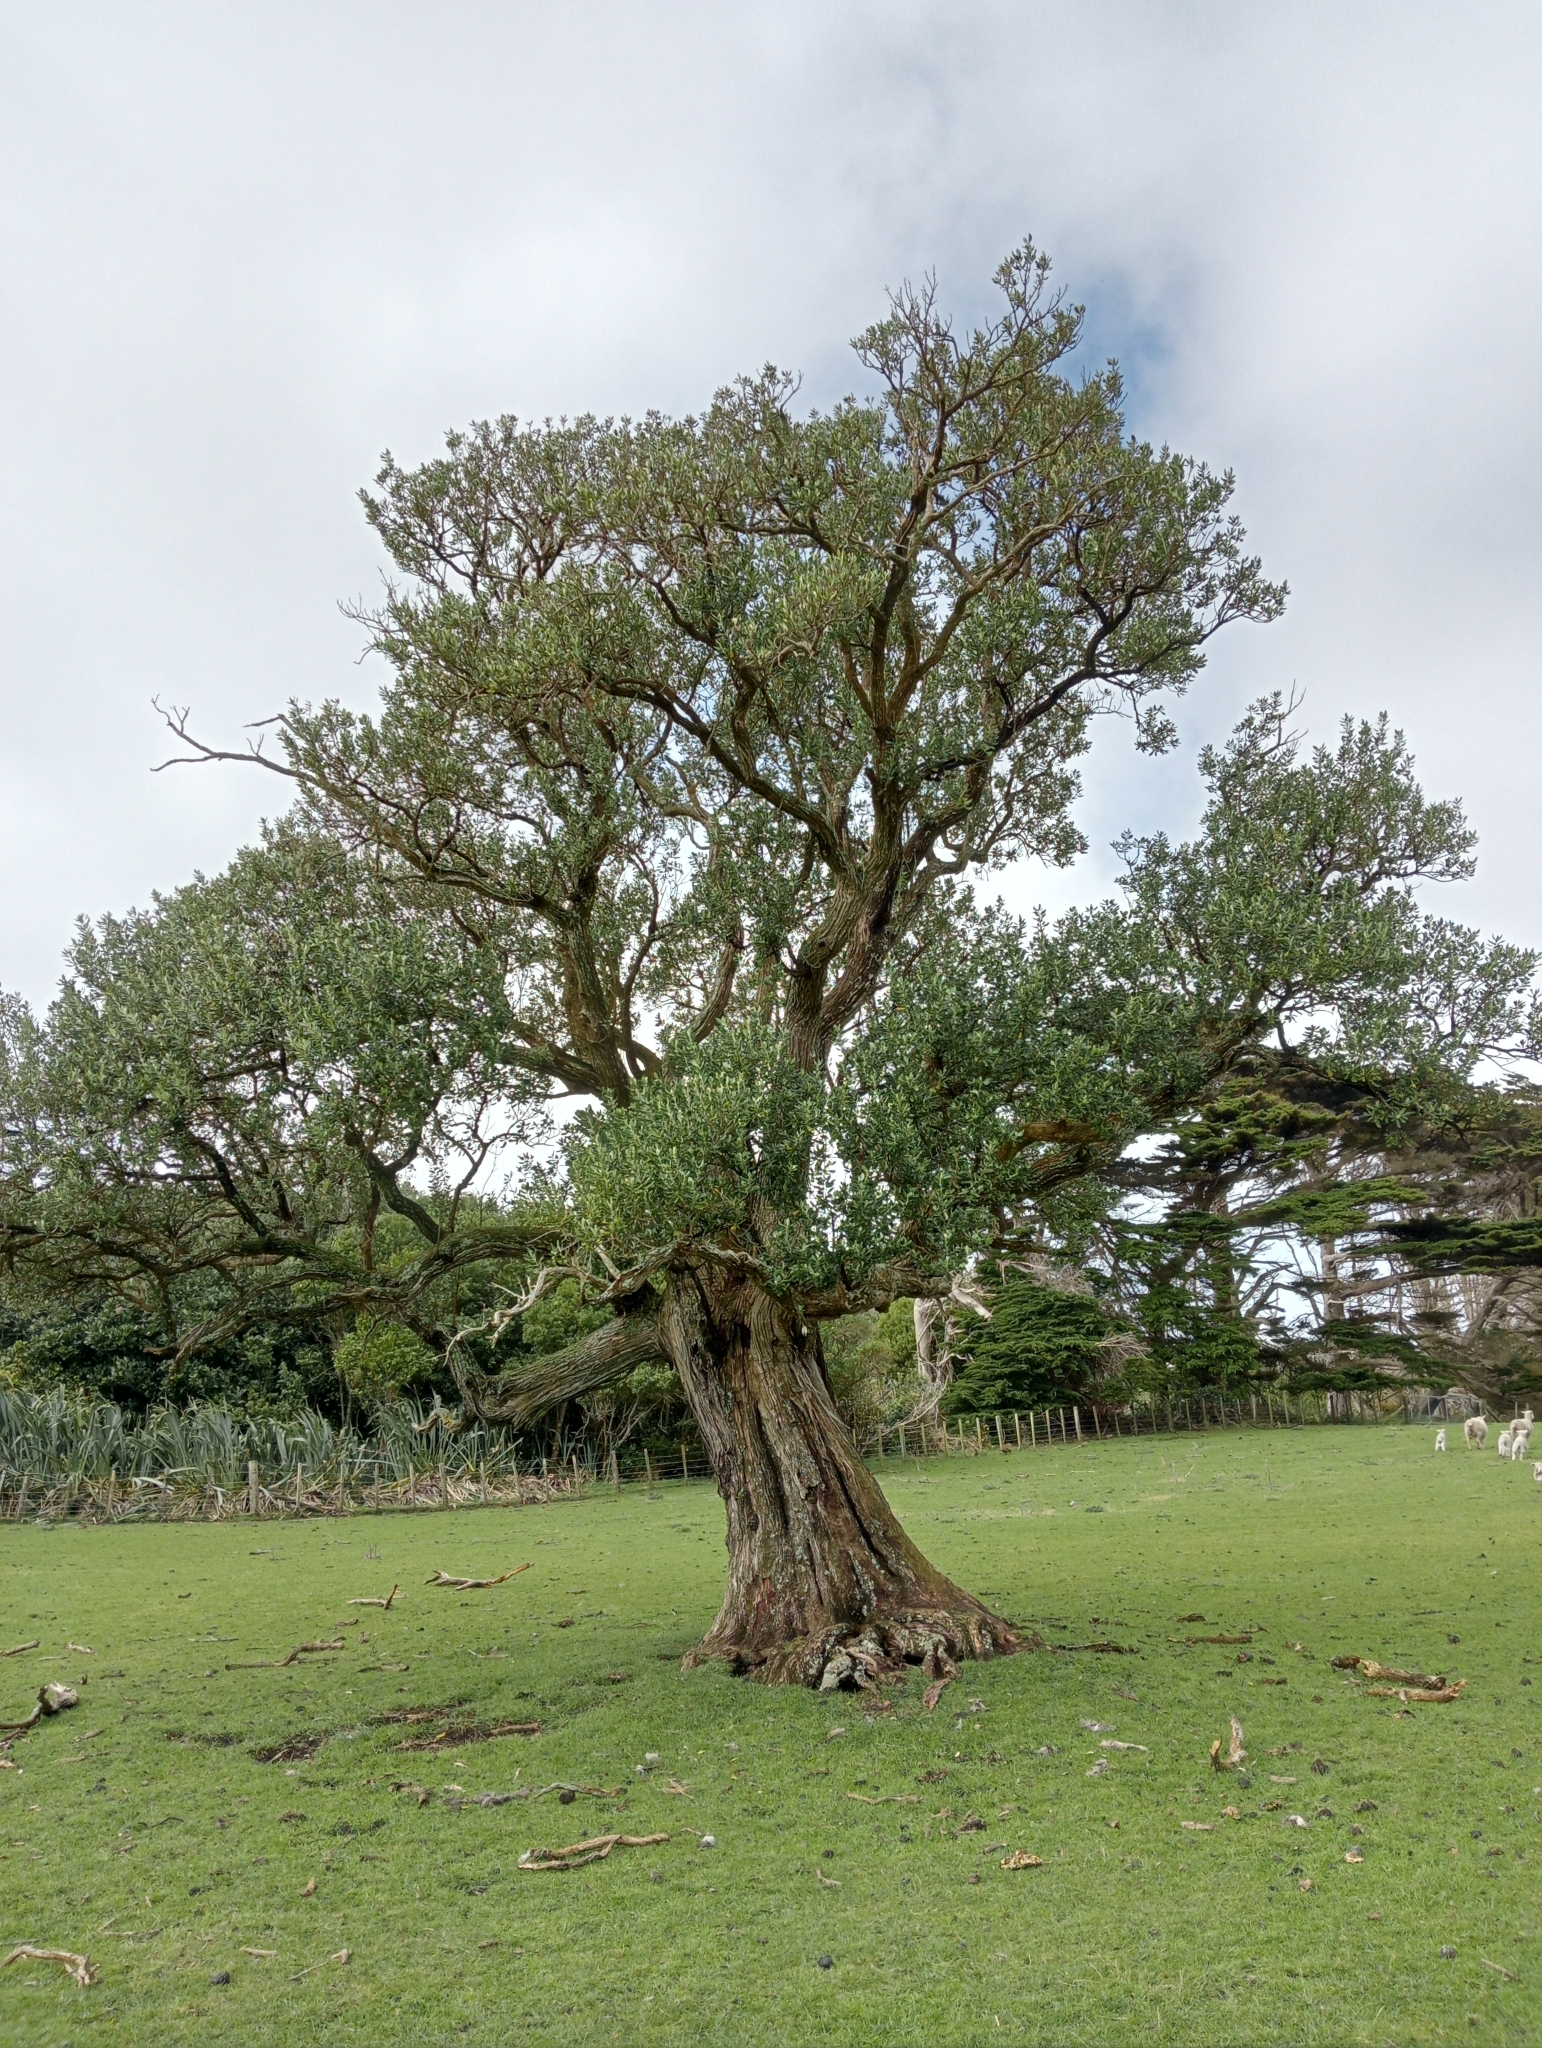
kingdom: Plantae
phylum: Tracheophyta
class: Magnoliopsida
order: Asterales
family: Asteraceae
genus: Olearia
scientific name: Olearia traversiorum
